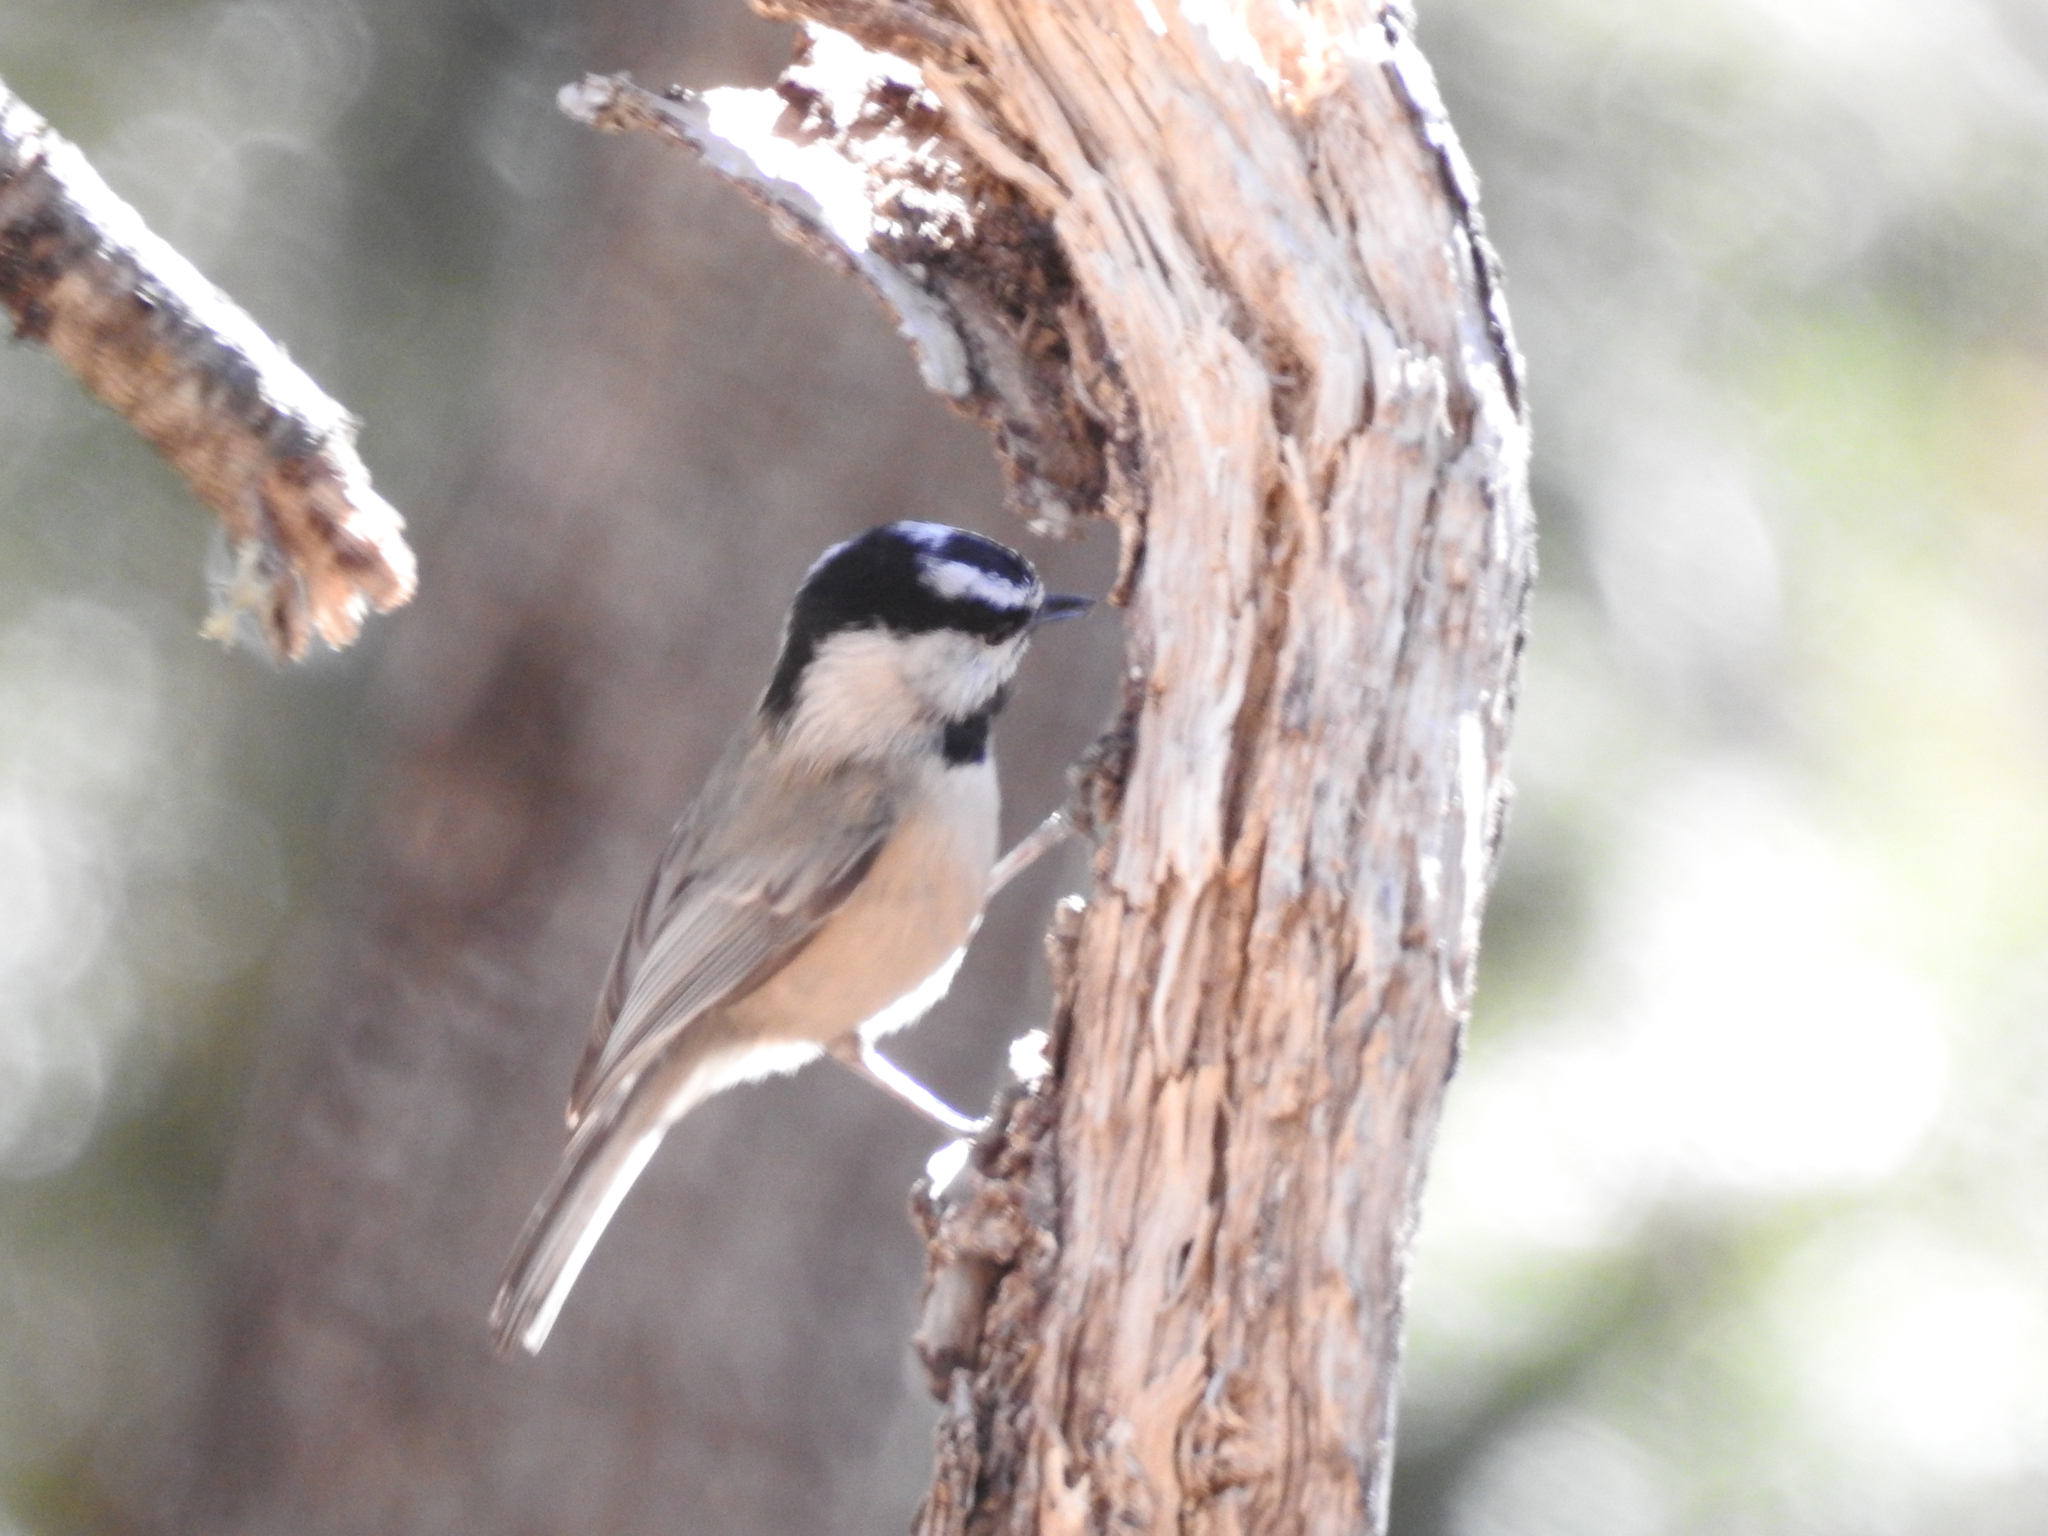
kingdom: Animalia
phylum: Chordata
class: Aves
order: Passeriformes
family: Paridae
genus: Poecile
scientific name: Poecile gambeli
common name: Mountain chickadee
